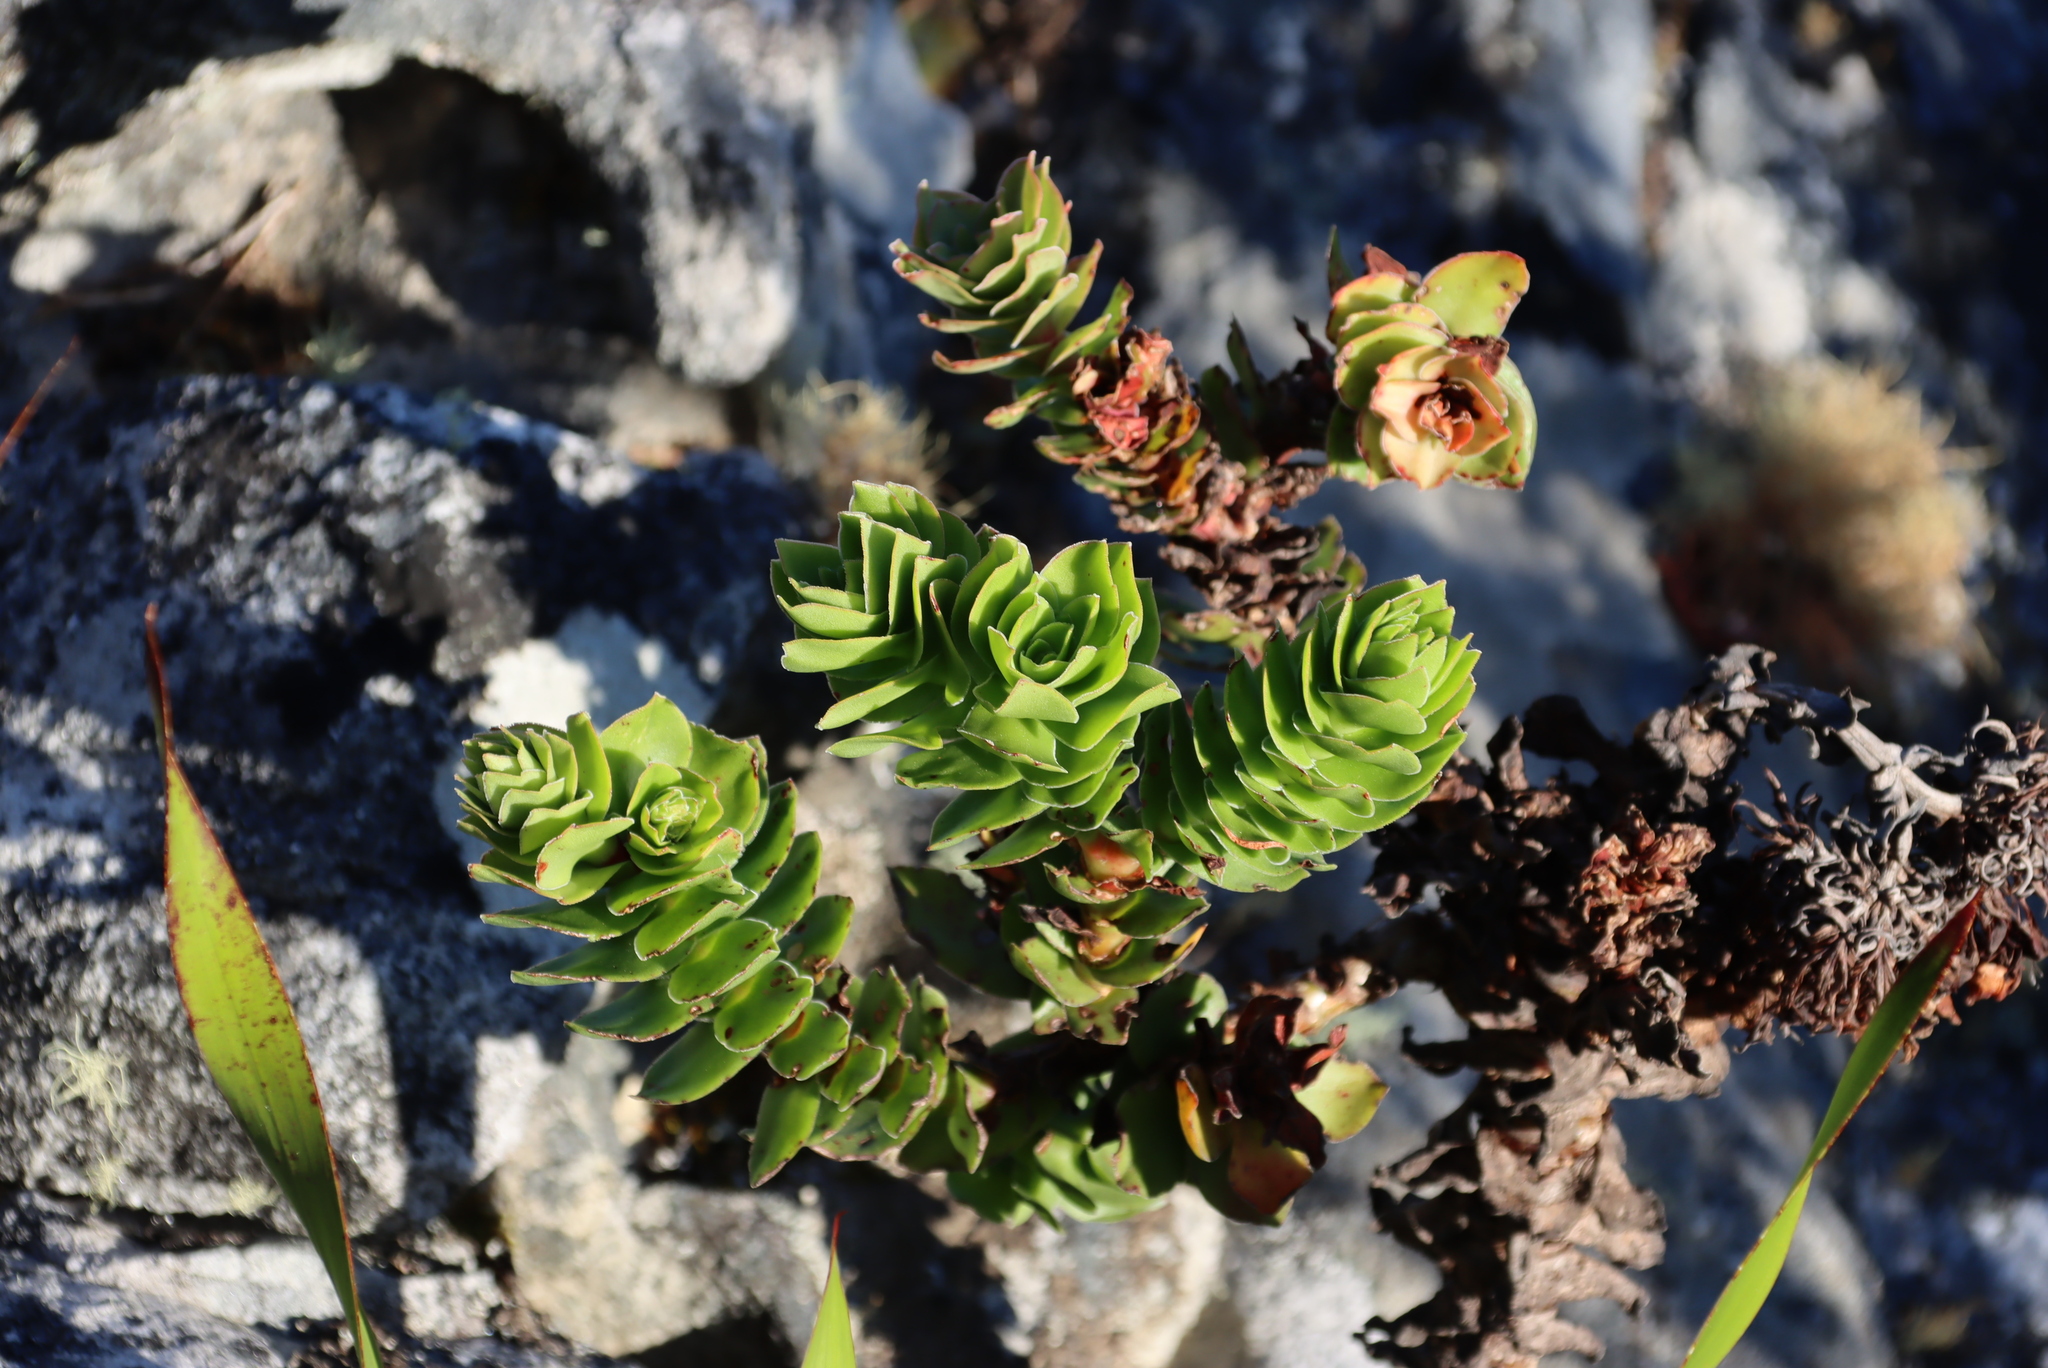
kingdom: Plantae
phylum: Tracheophyta
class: Magnoliopsida
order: Saxifragales
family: Crassulaceae
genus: Crassula
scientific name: Crassula coccinea
